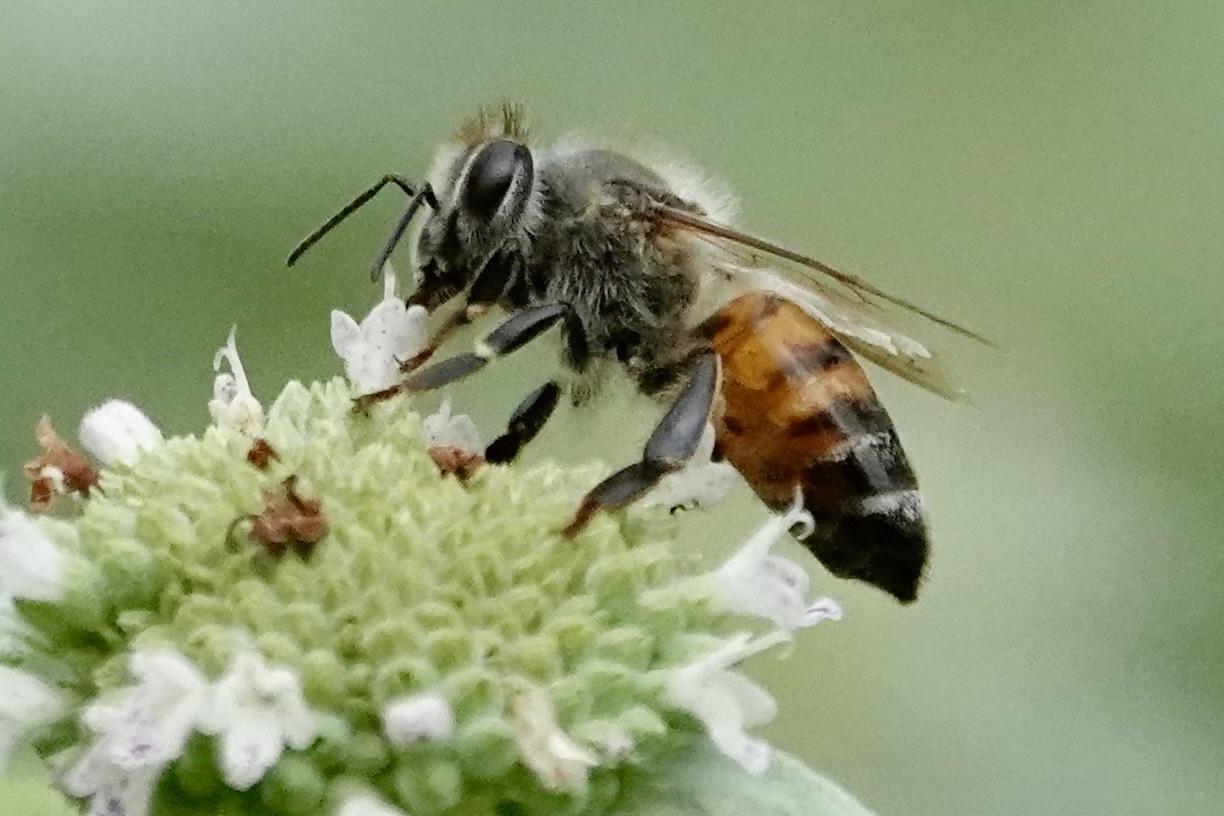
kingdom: Animalia
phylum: Arthropoda
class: Insecta
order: Hymenoptera
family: Apidae
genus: Apis
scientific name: Apis mellifera
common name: Honey bee
